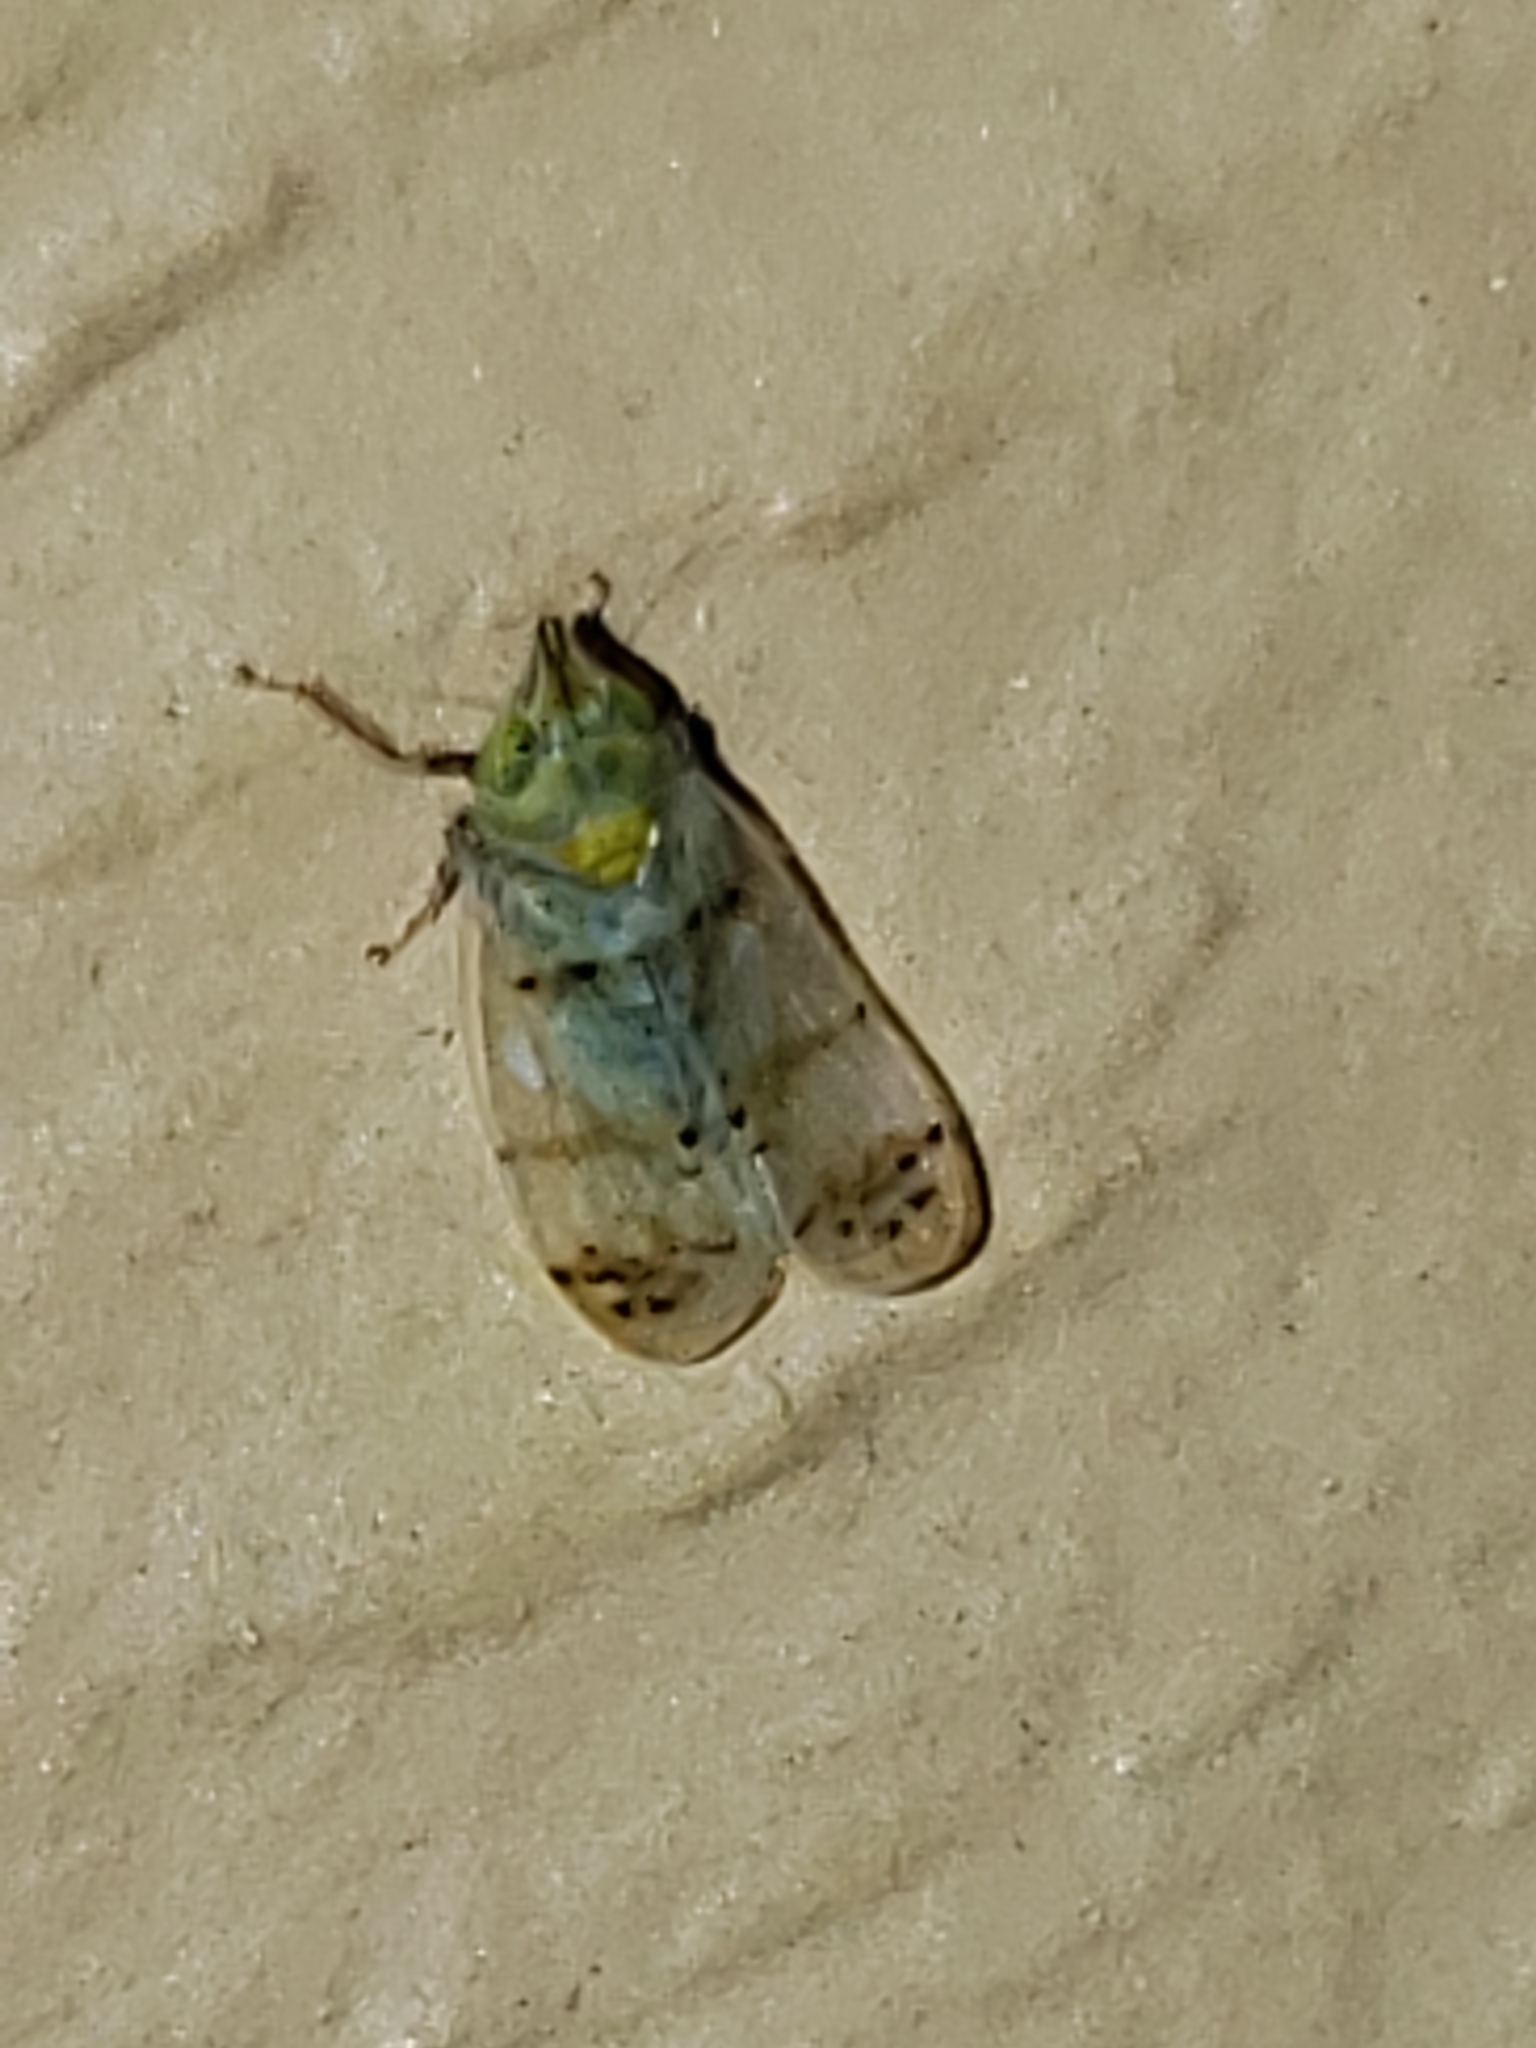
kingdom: Animalia
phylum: Arthropoda
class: Insecta
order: Hemiptera
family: Cicadellidae
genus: Japananus
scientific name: Japananus hyalinus
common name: The japanese maple leafhopper
